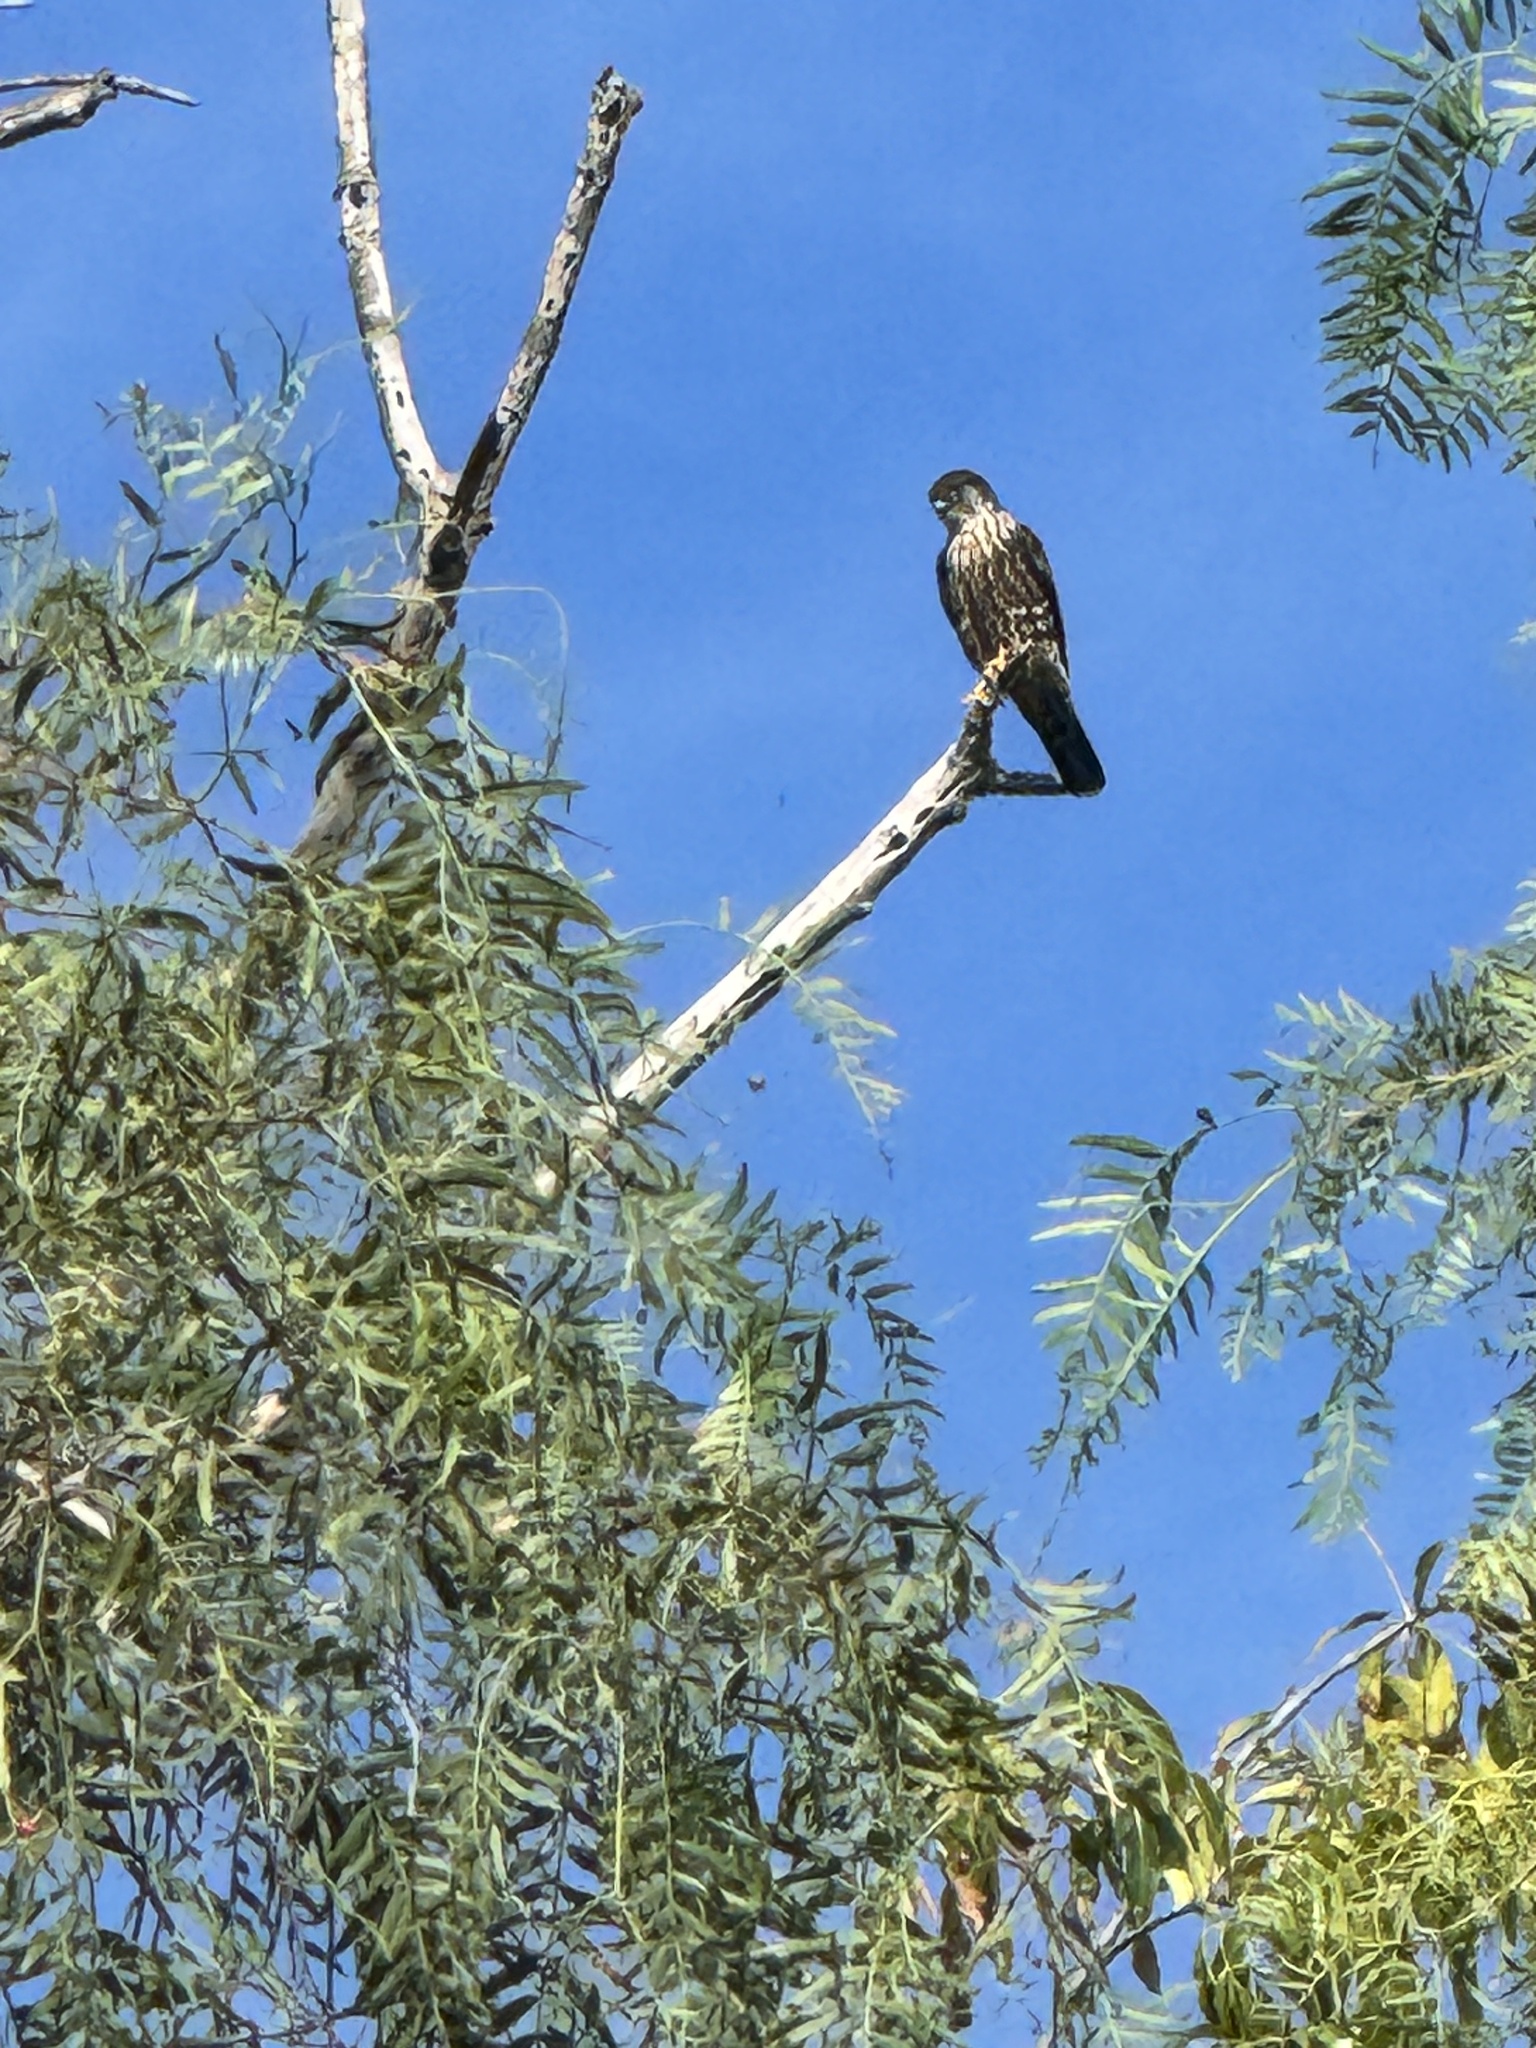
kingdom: Animalia
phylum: Chordata
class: Aves
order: Falconiformes
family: Falconidae
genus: Falco
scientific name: Falco columbarius
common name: Merlin
